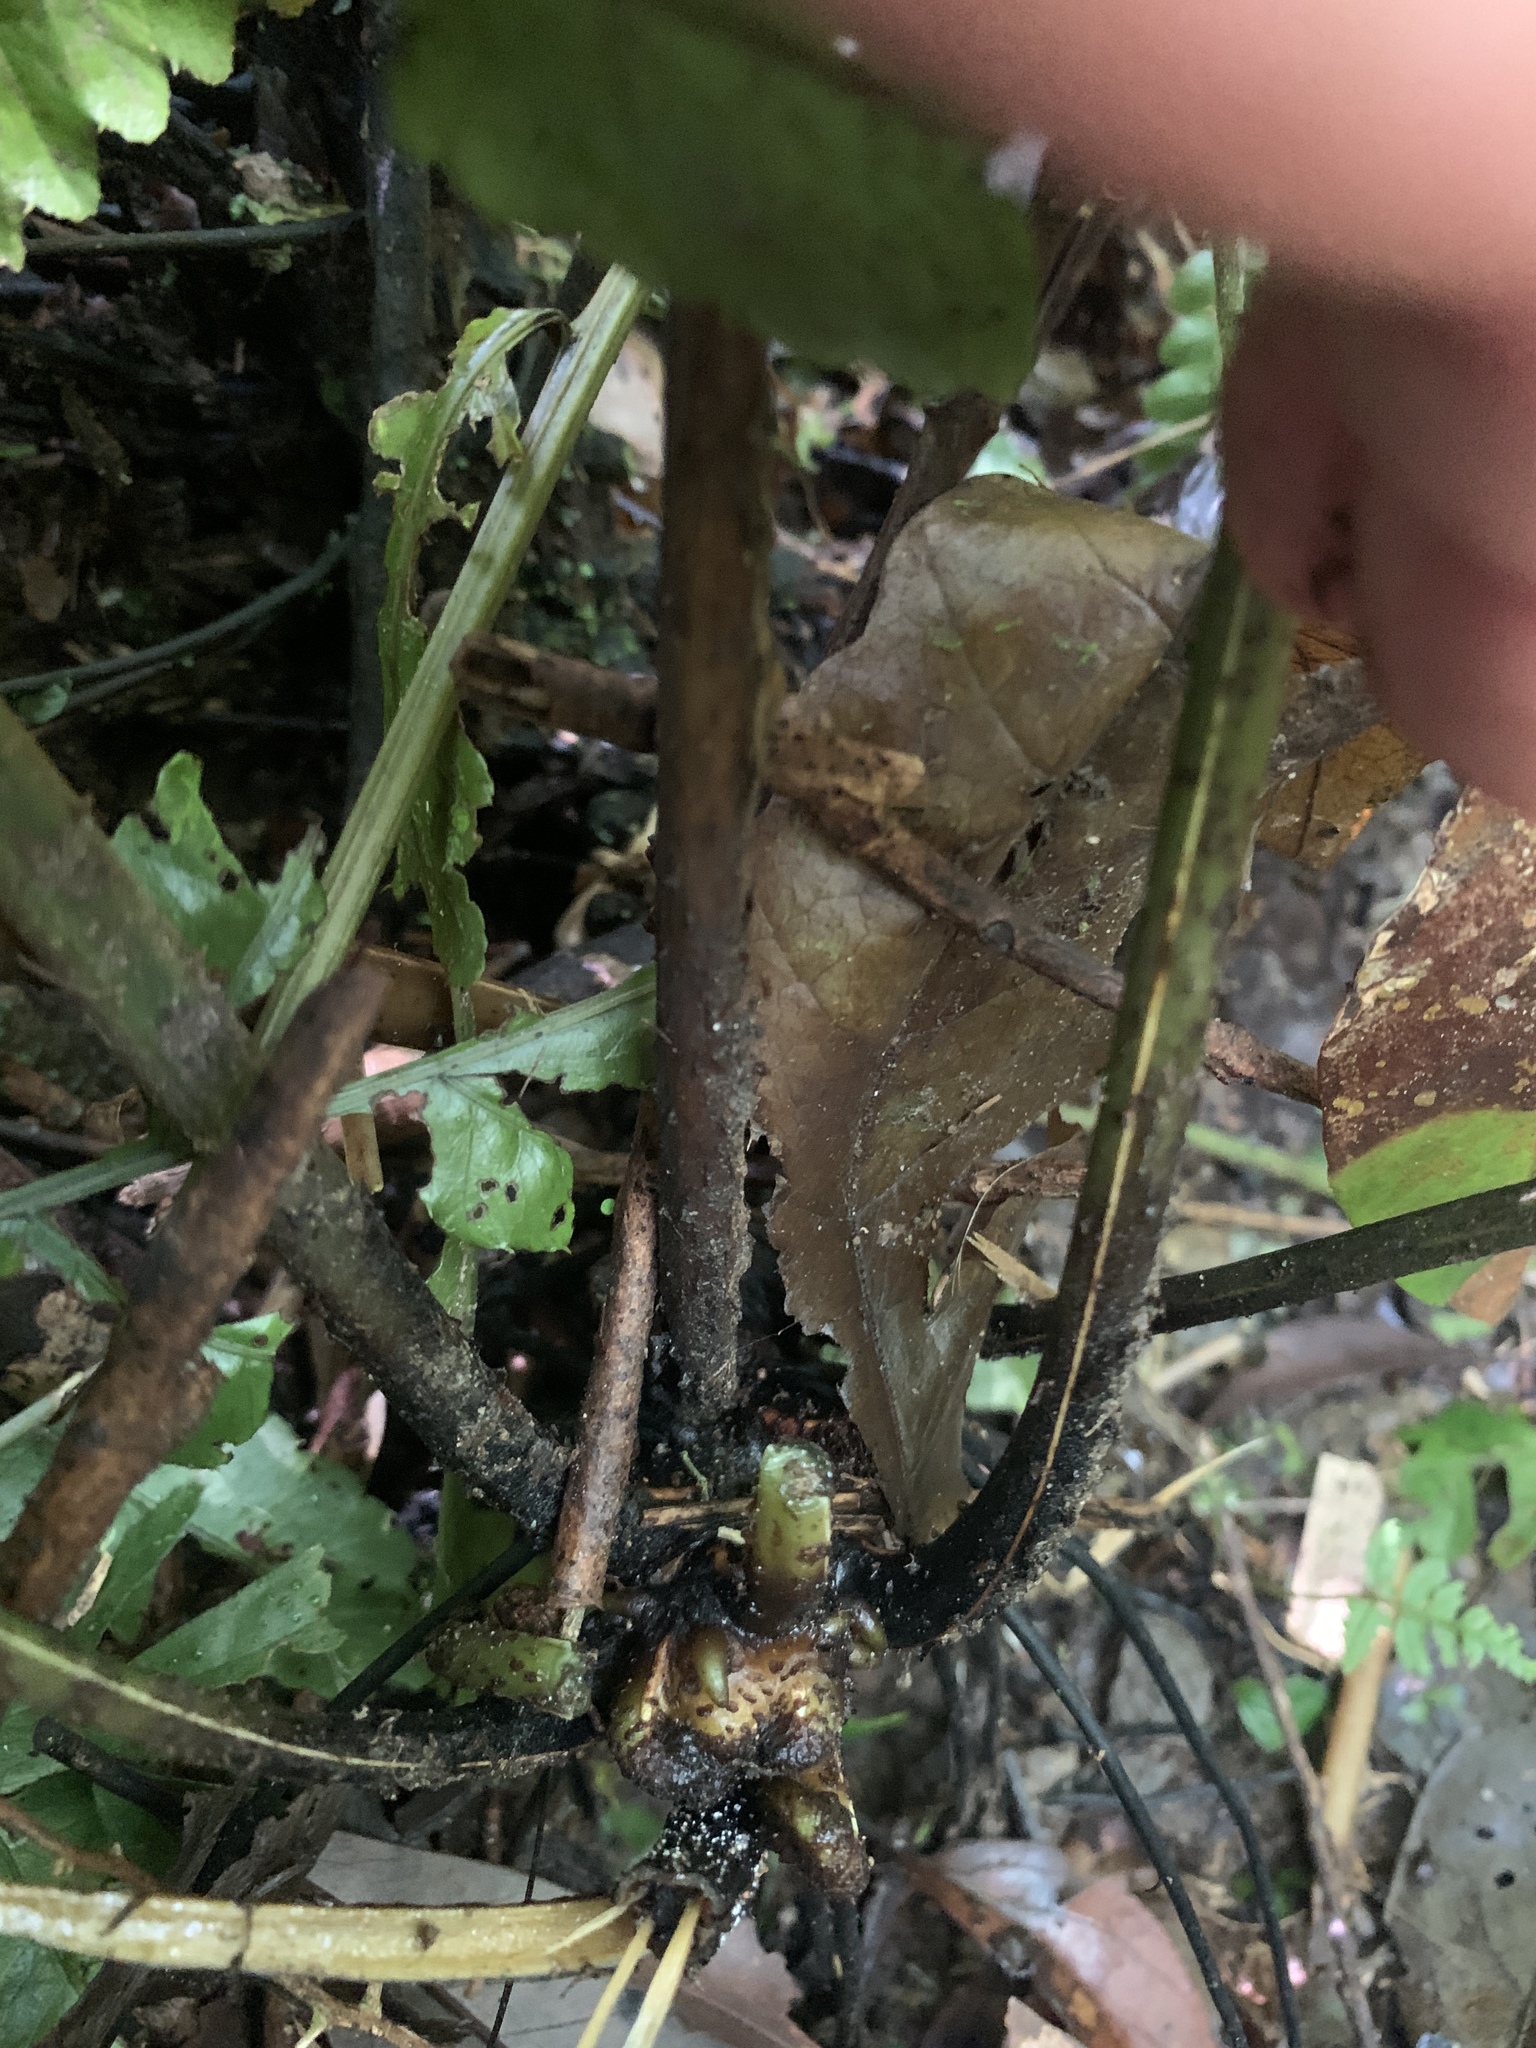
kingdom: Plantae
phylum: Tracheophyta
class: Polypodiopsida
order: Polypodiales
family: Athyriaceae
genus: Diplazium
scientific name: Diplazium doederleinii
